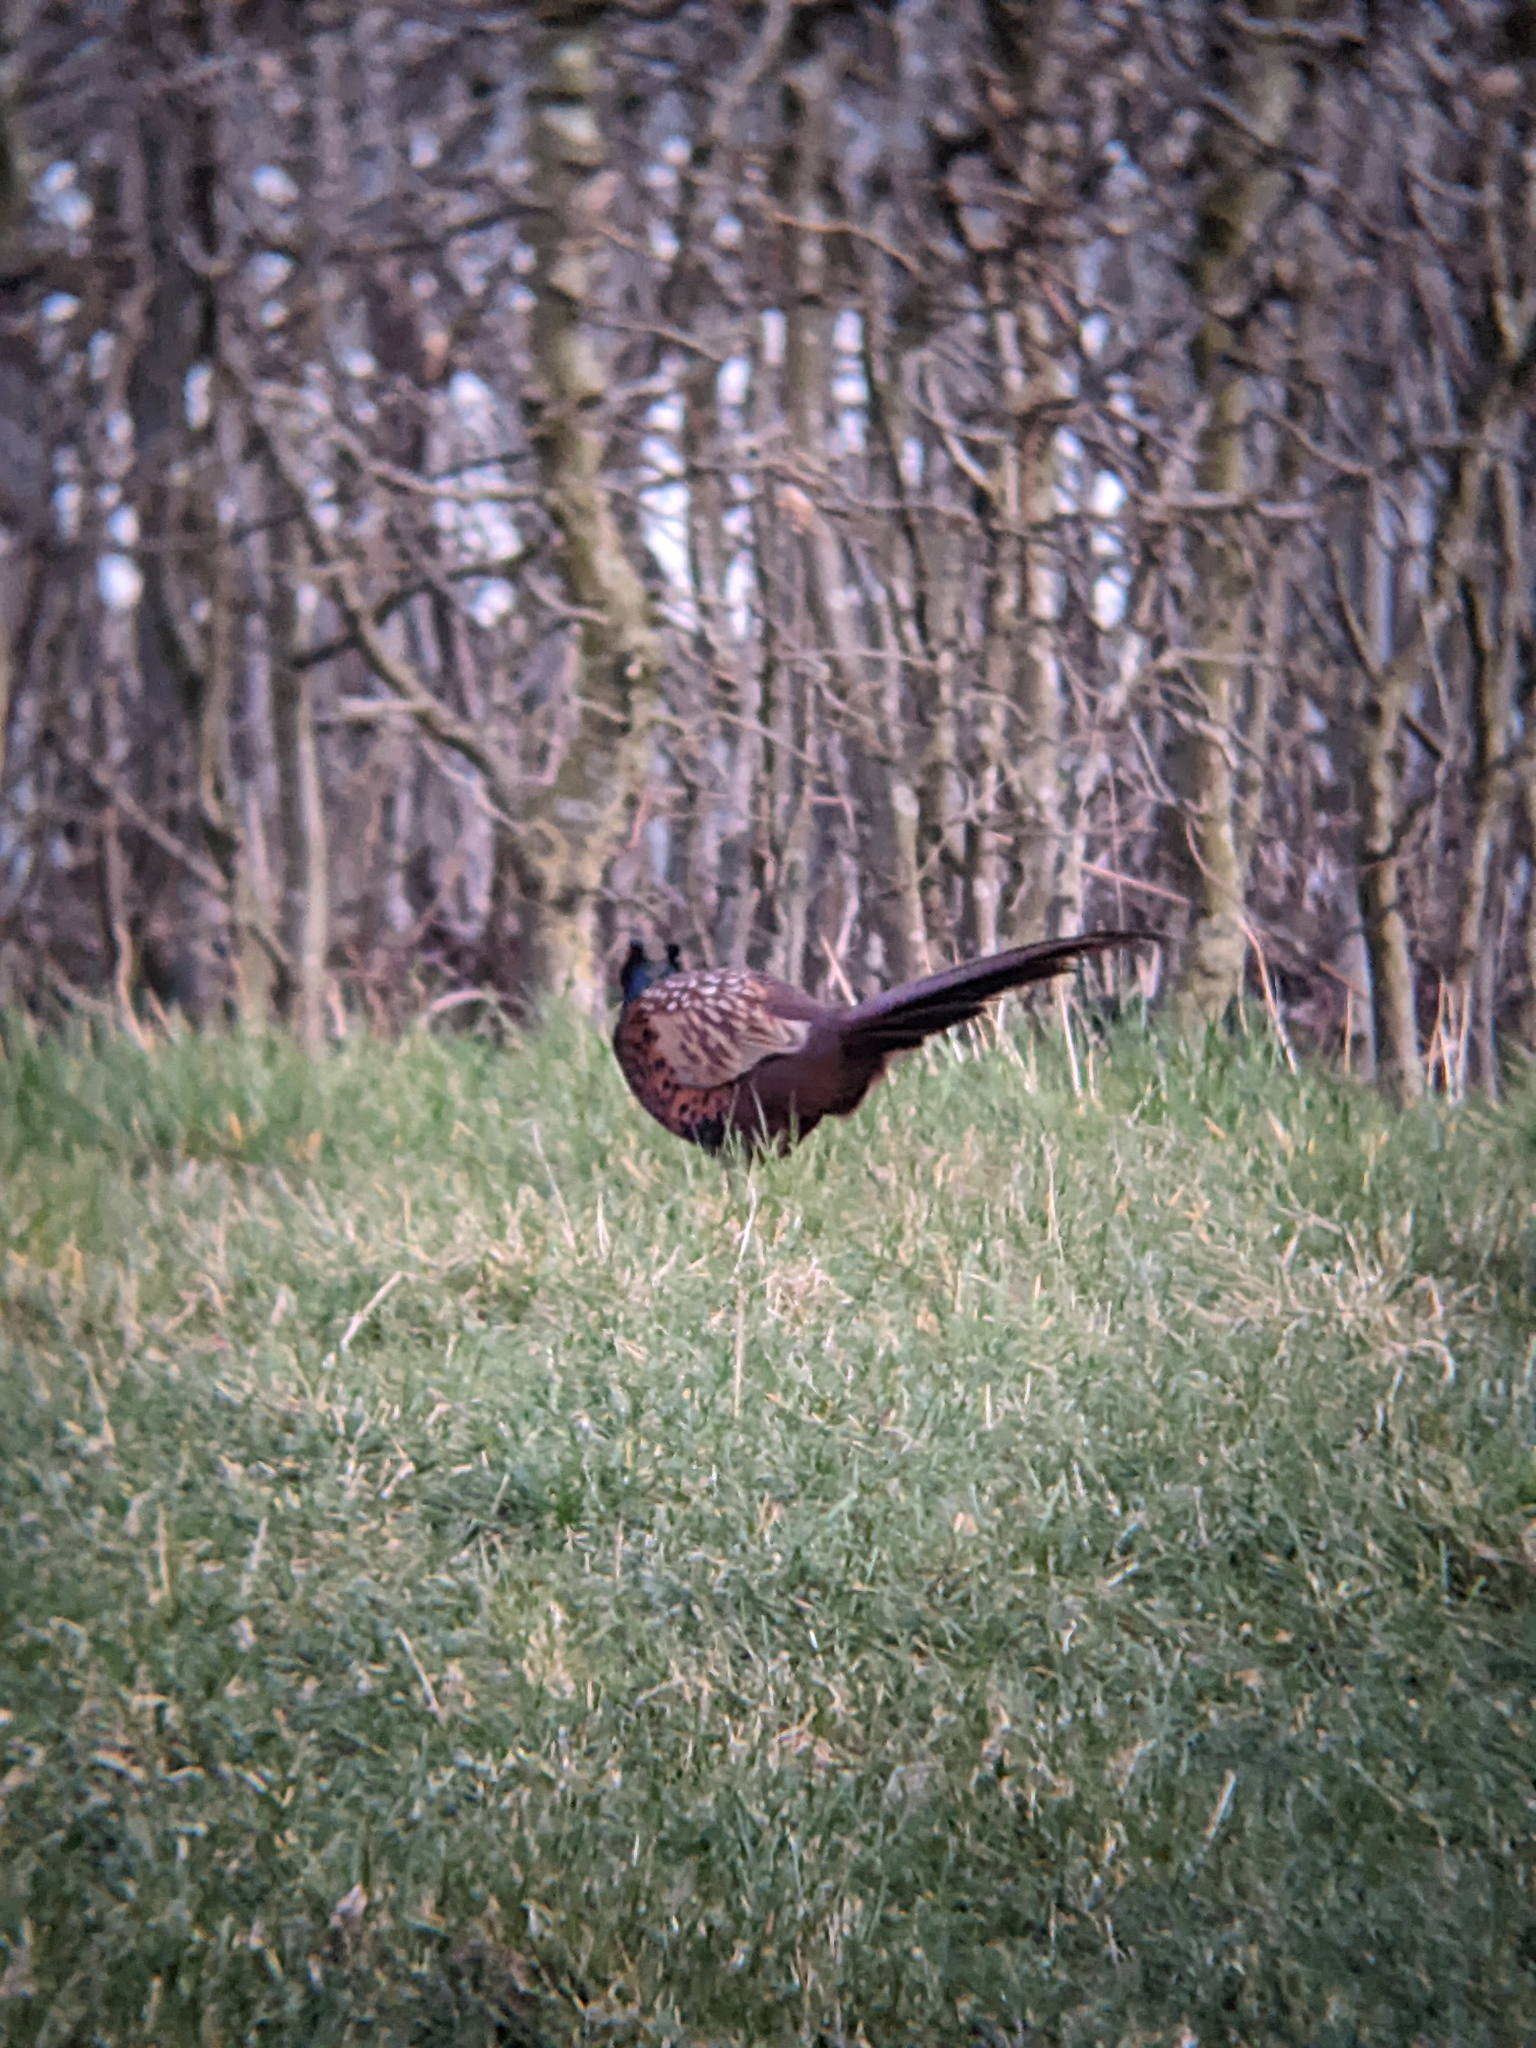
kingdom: Animalia
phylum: Chordata
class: Aves
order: Galliformes
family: Phasianidae
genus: Phasianus
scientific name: Phasianus colchicus
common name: Common pheasant
